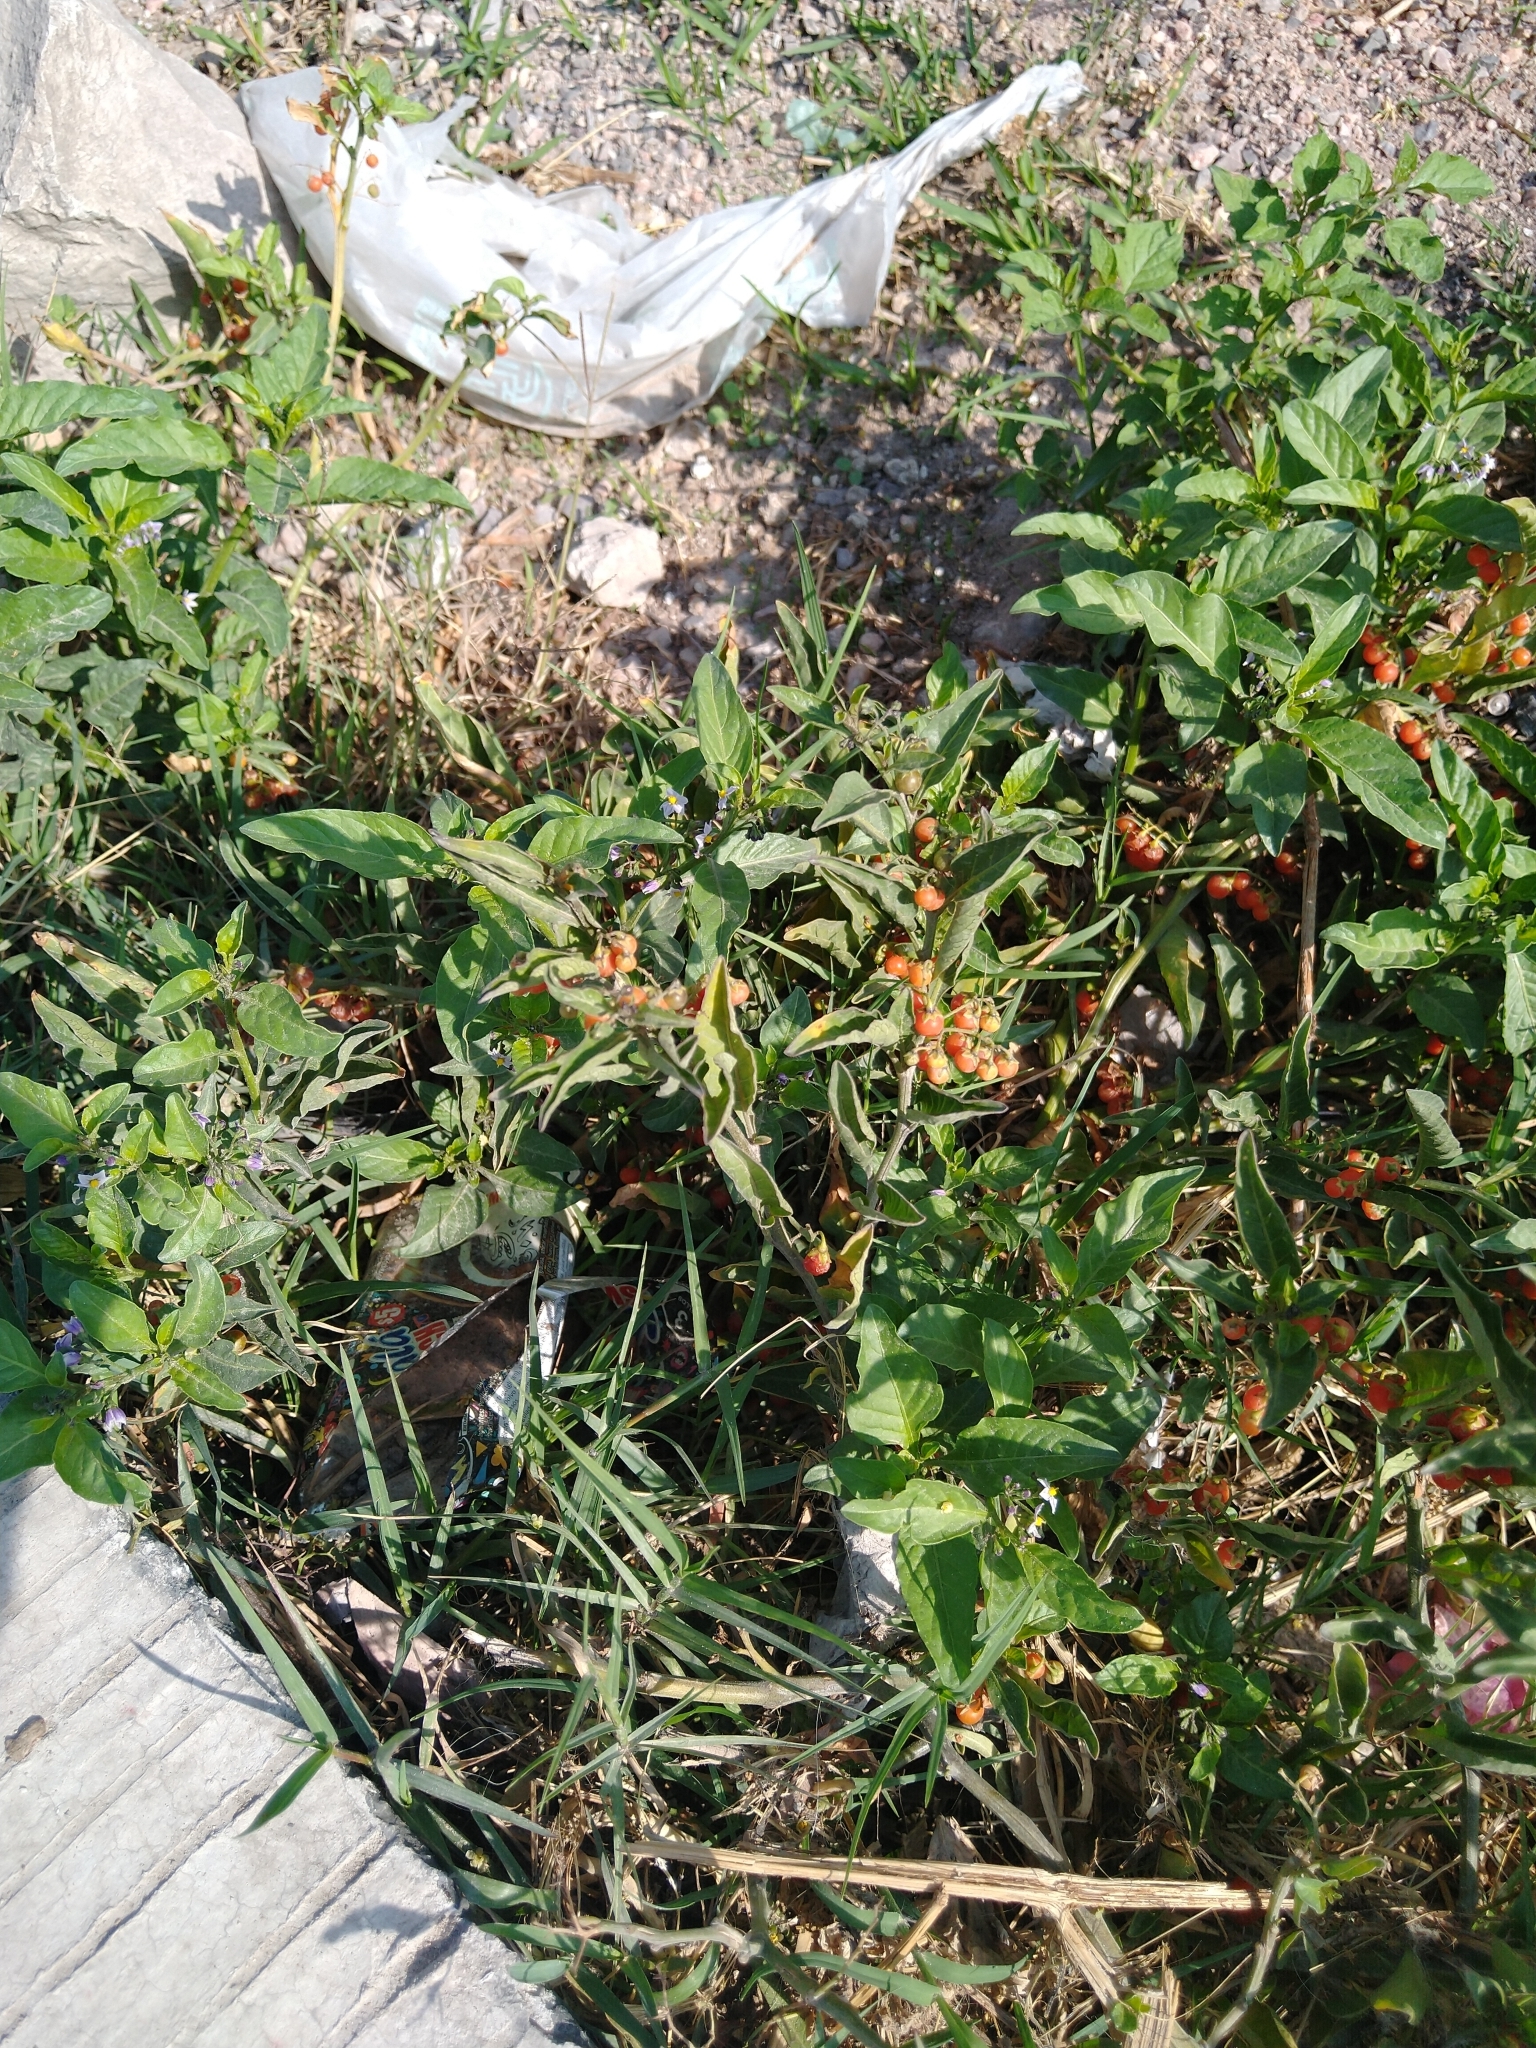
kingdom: Plantae
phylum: Tracheophyta
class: Magnoliopsida
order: Solanales
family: Solanaceae
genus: Solanum
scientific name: Solanum corymbosum
